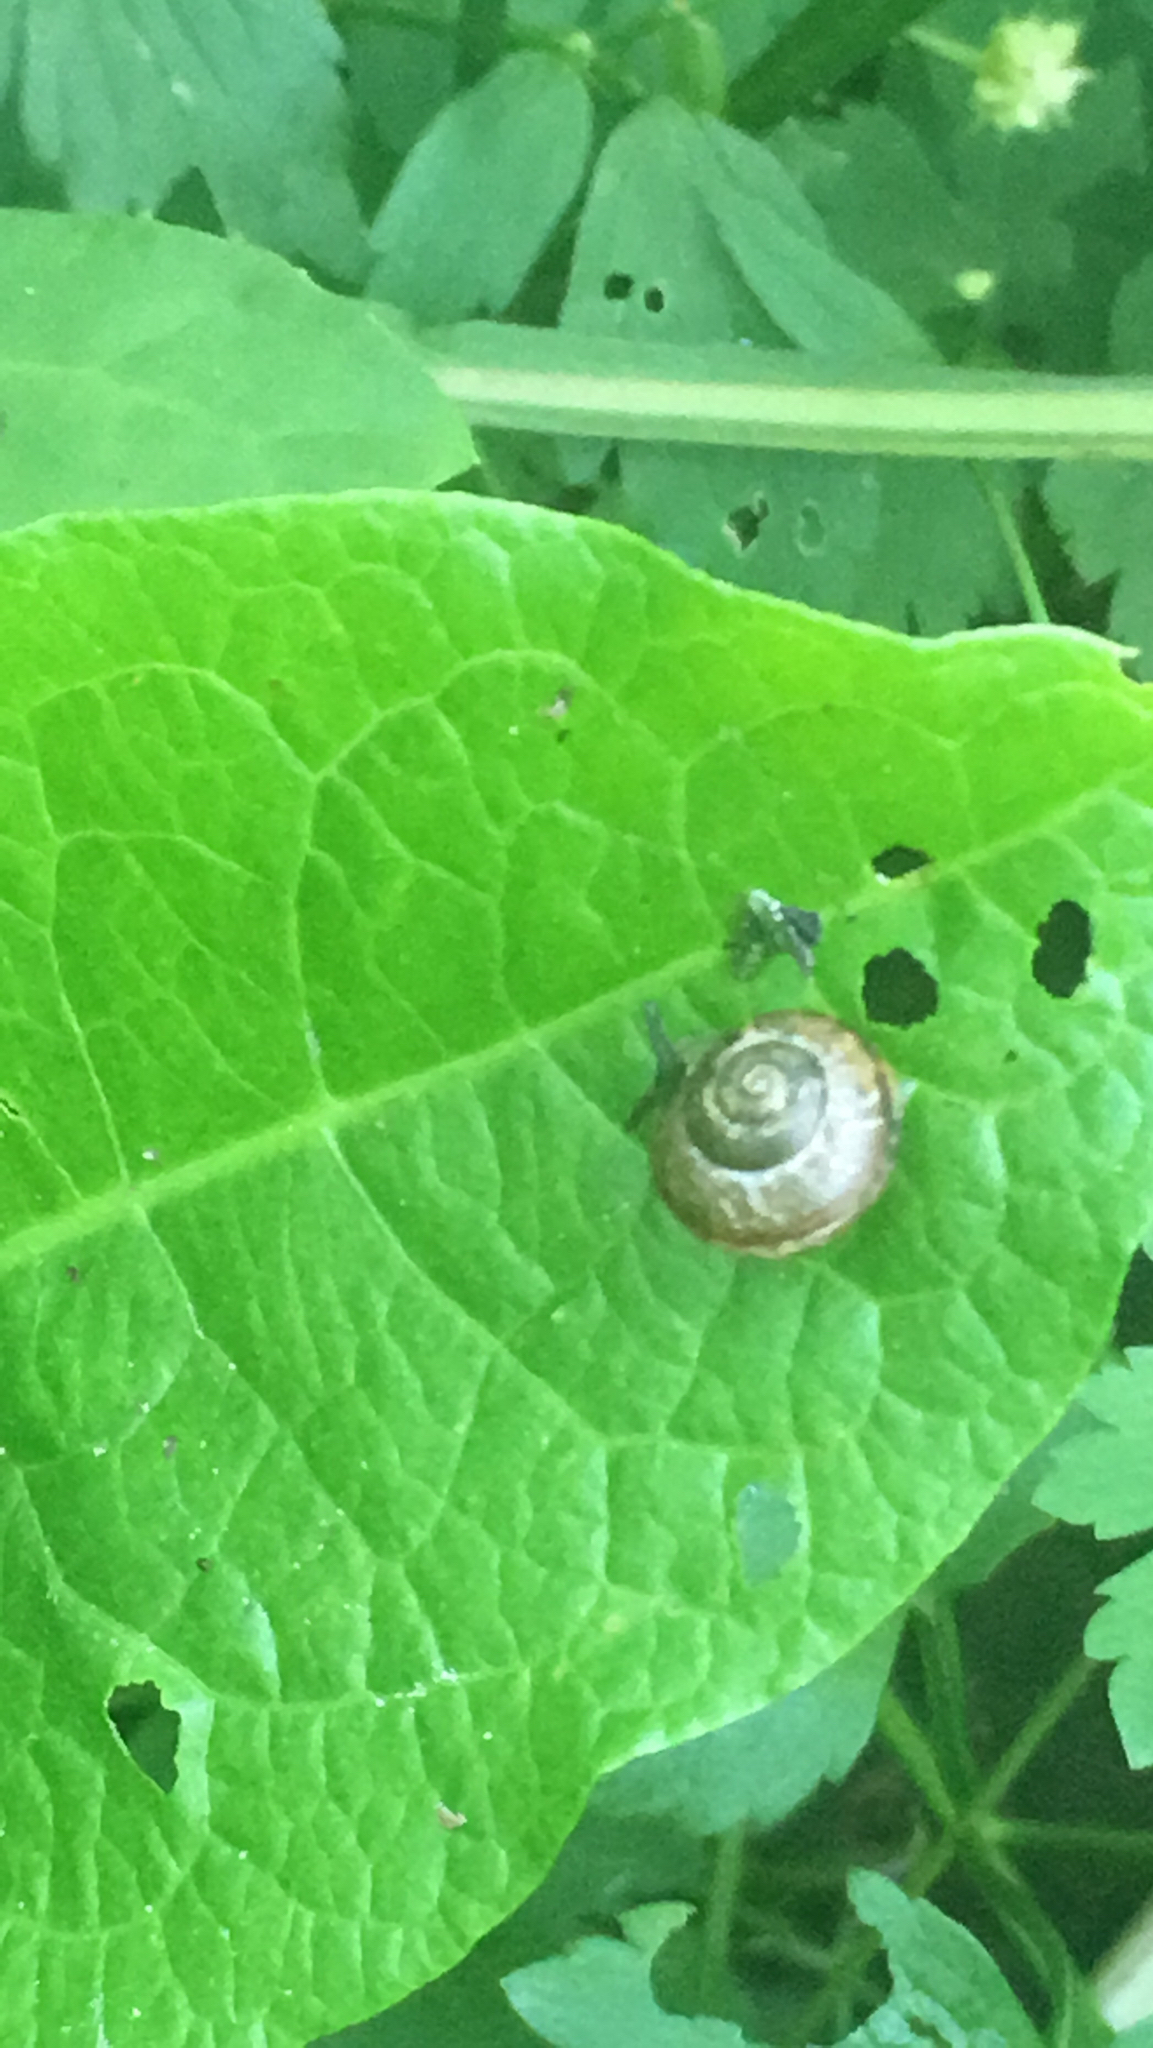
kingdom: Animalia
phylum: Mollusca
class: Gastropoda
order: Stylommatophora
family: Helicidae
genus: Arianta
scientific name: Arianta arbustorum
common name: Copse snail
